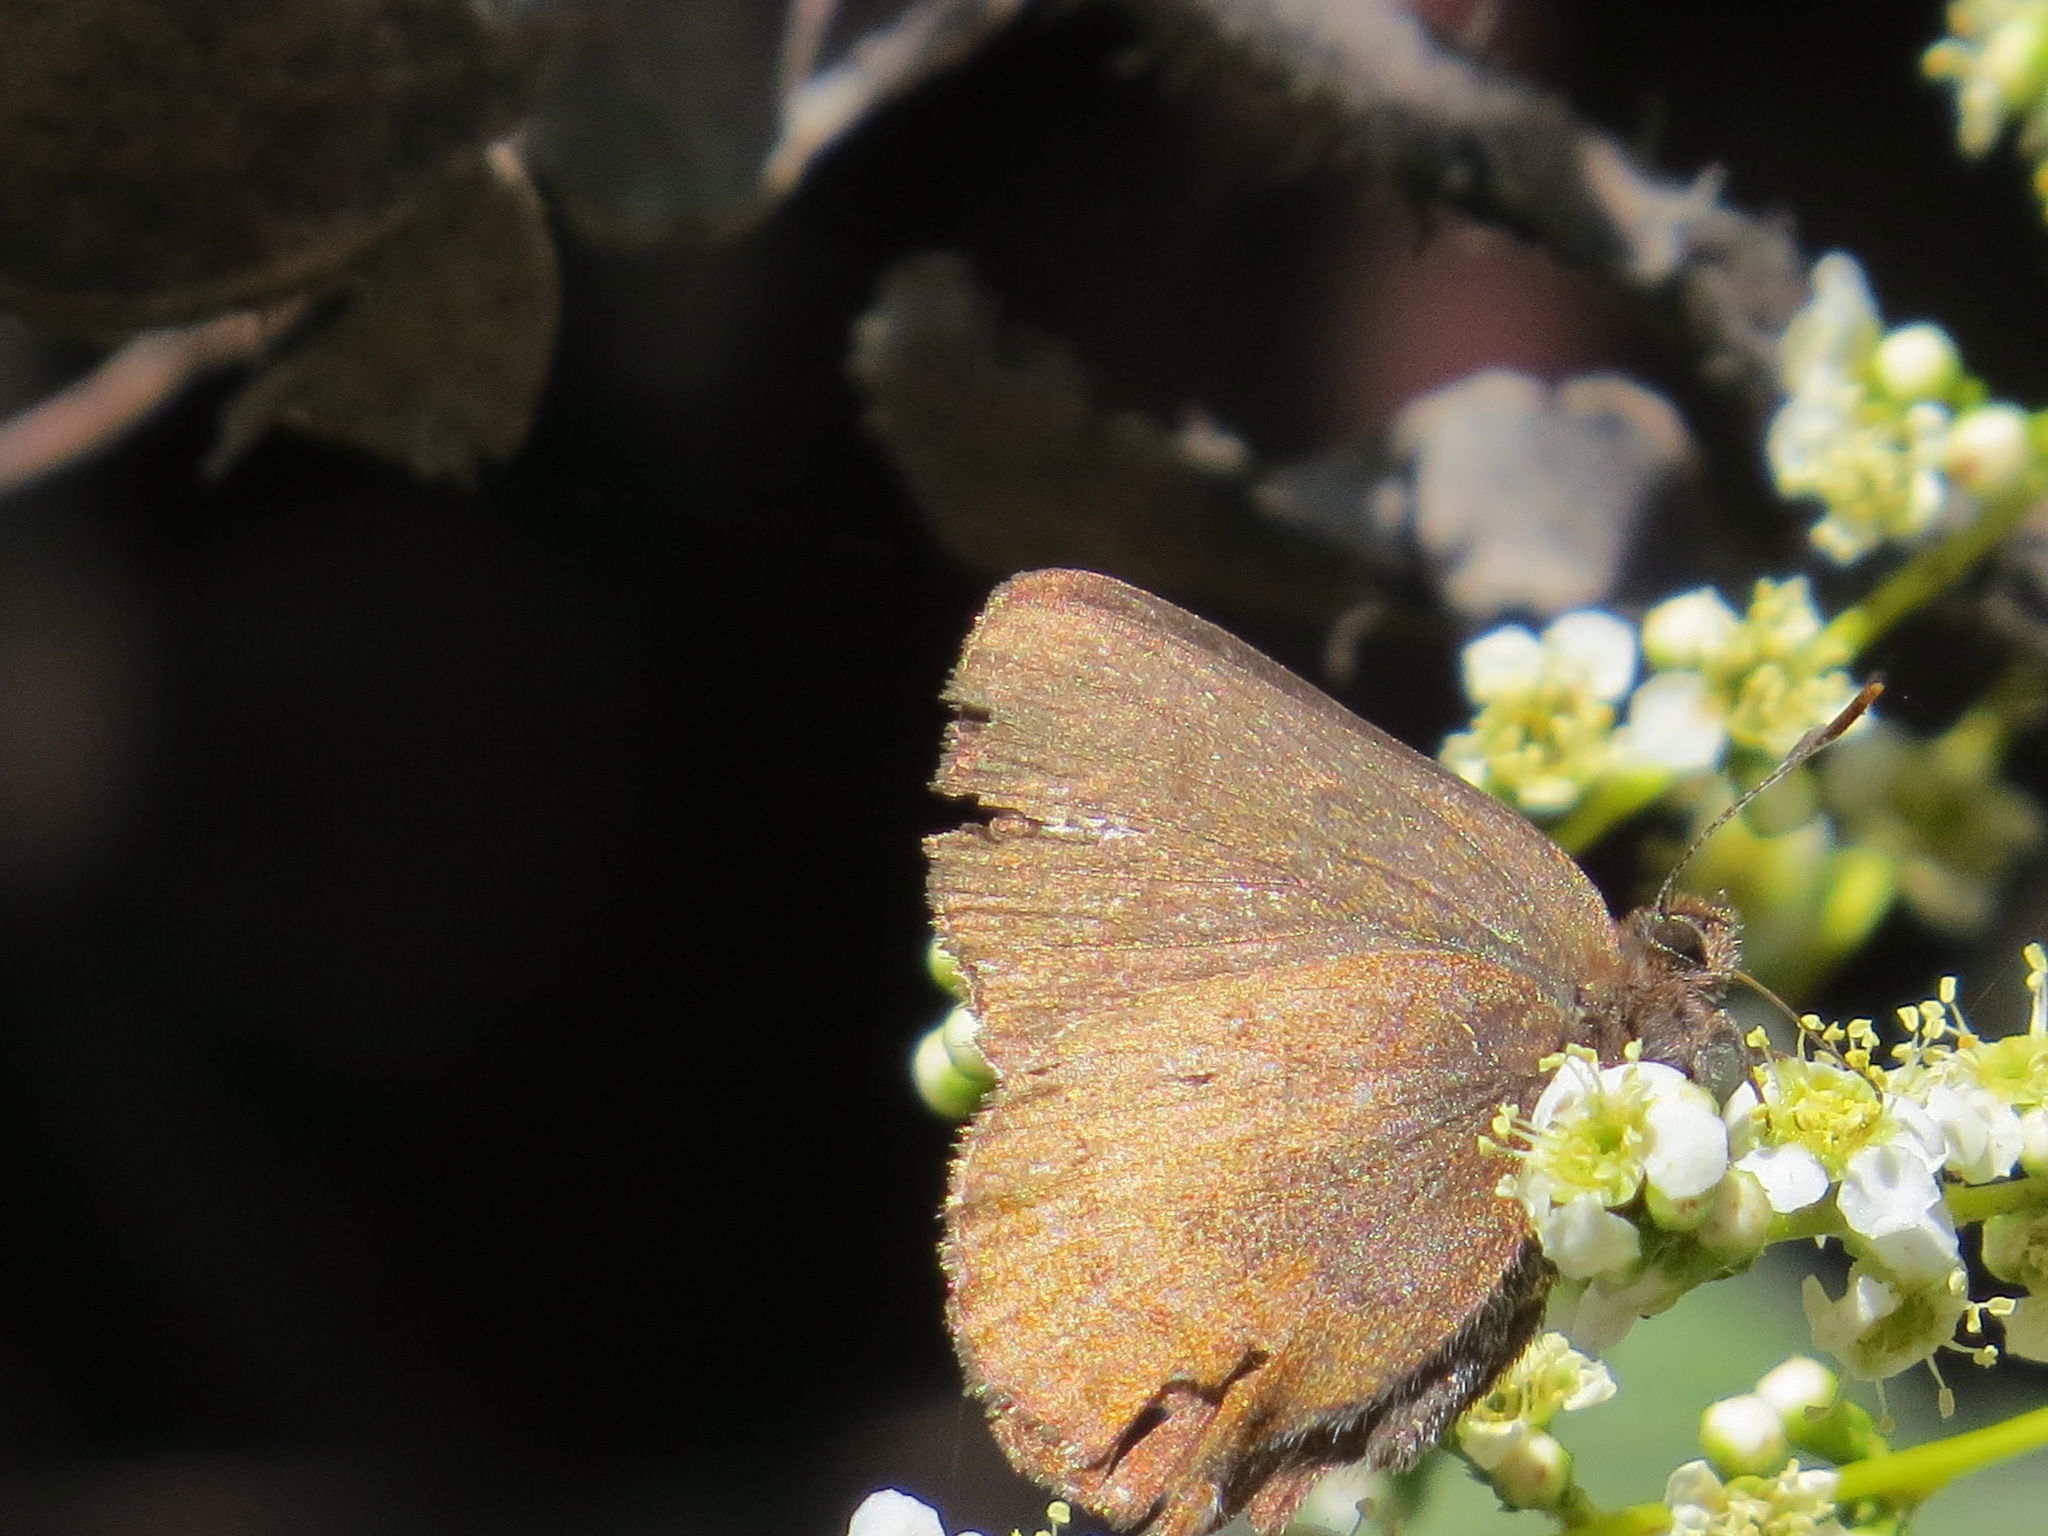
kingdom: Animalia
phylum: Arthropoda
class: Insecta
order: Lepidoptera
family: Lycaenidae
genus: Incisalia
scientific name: Incisalia irioides
